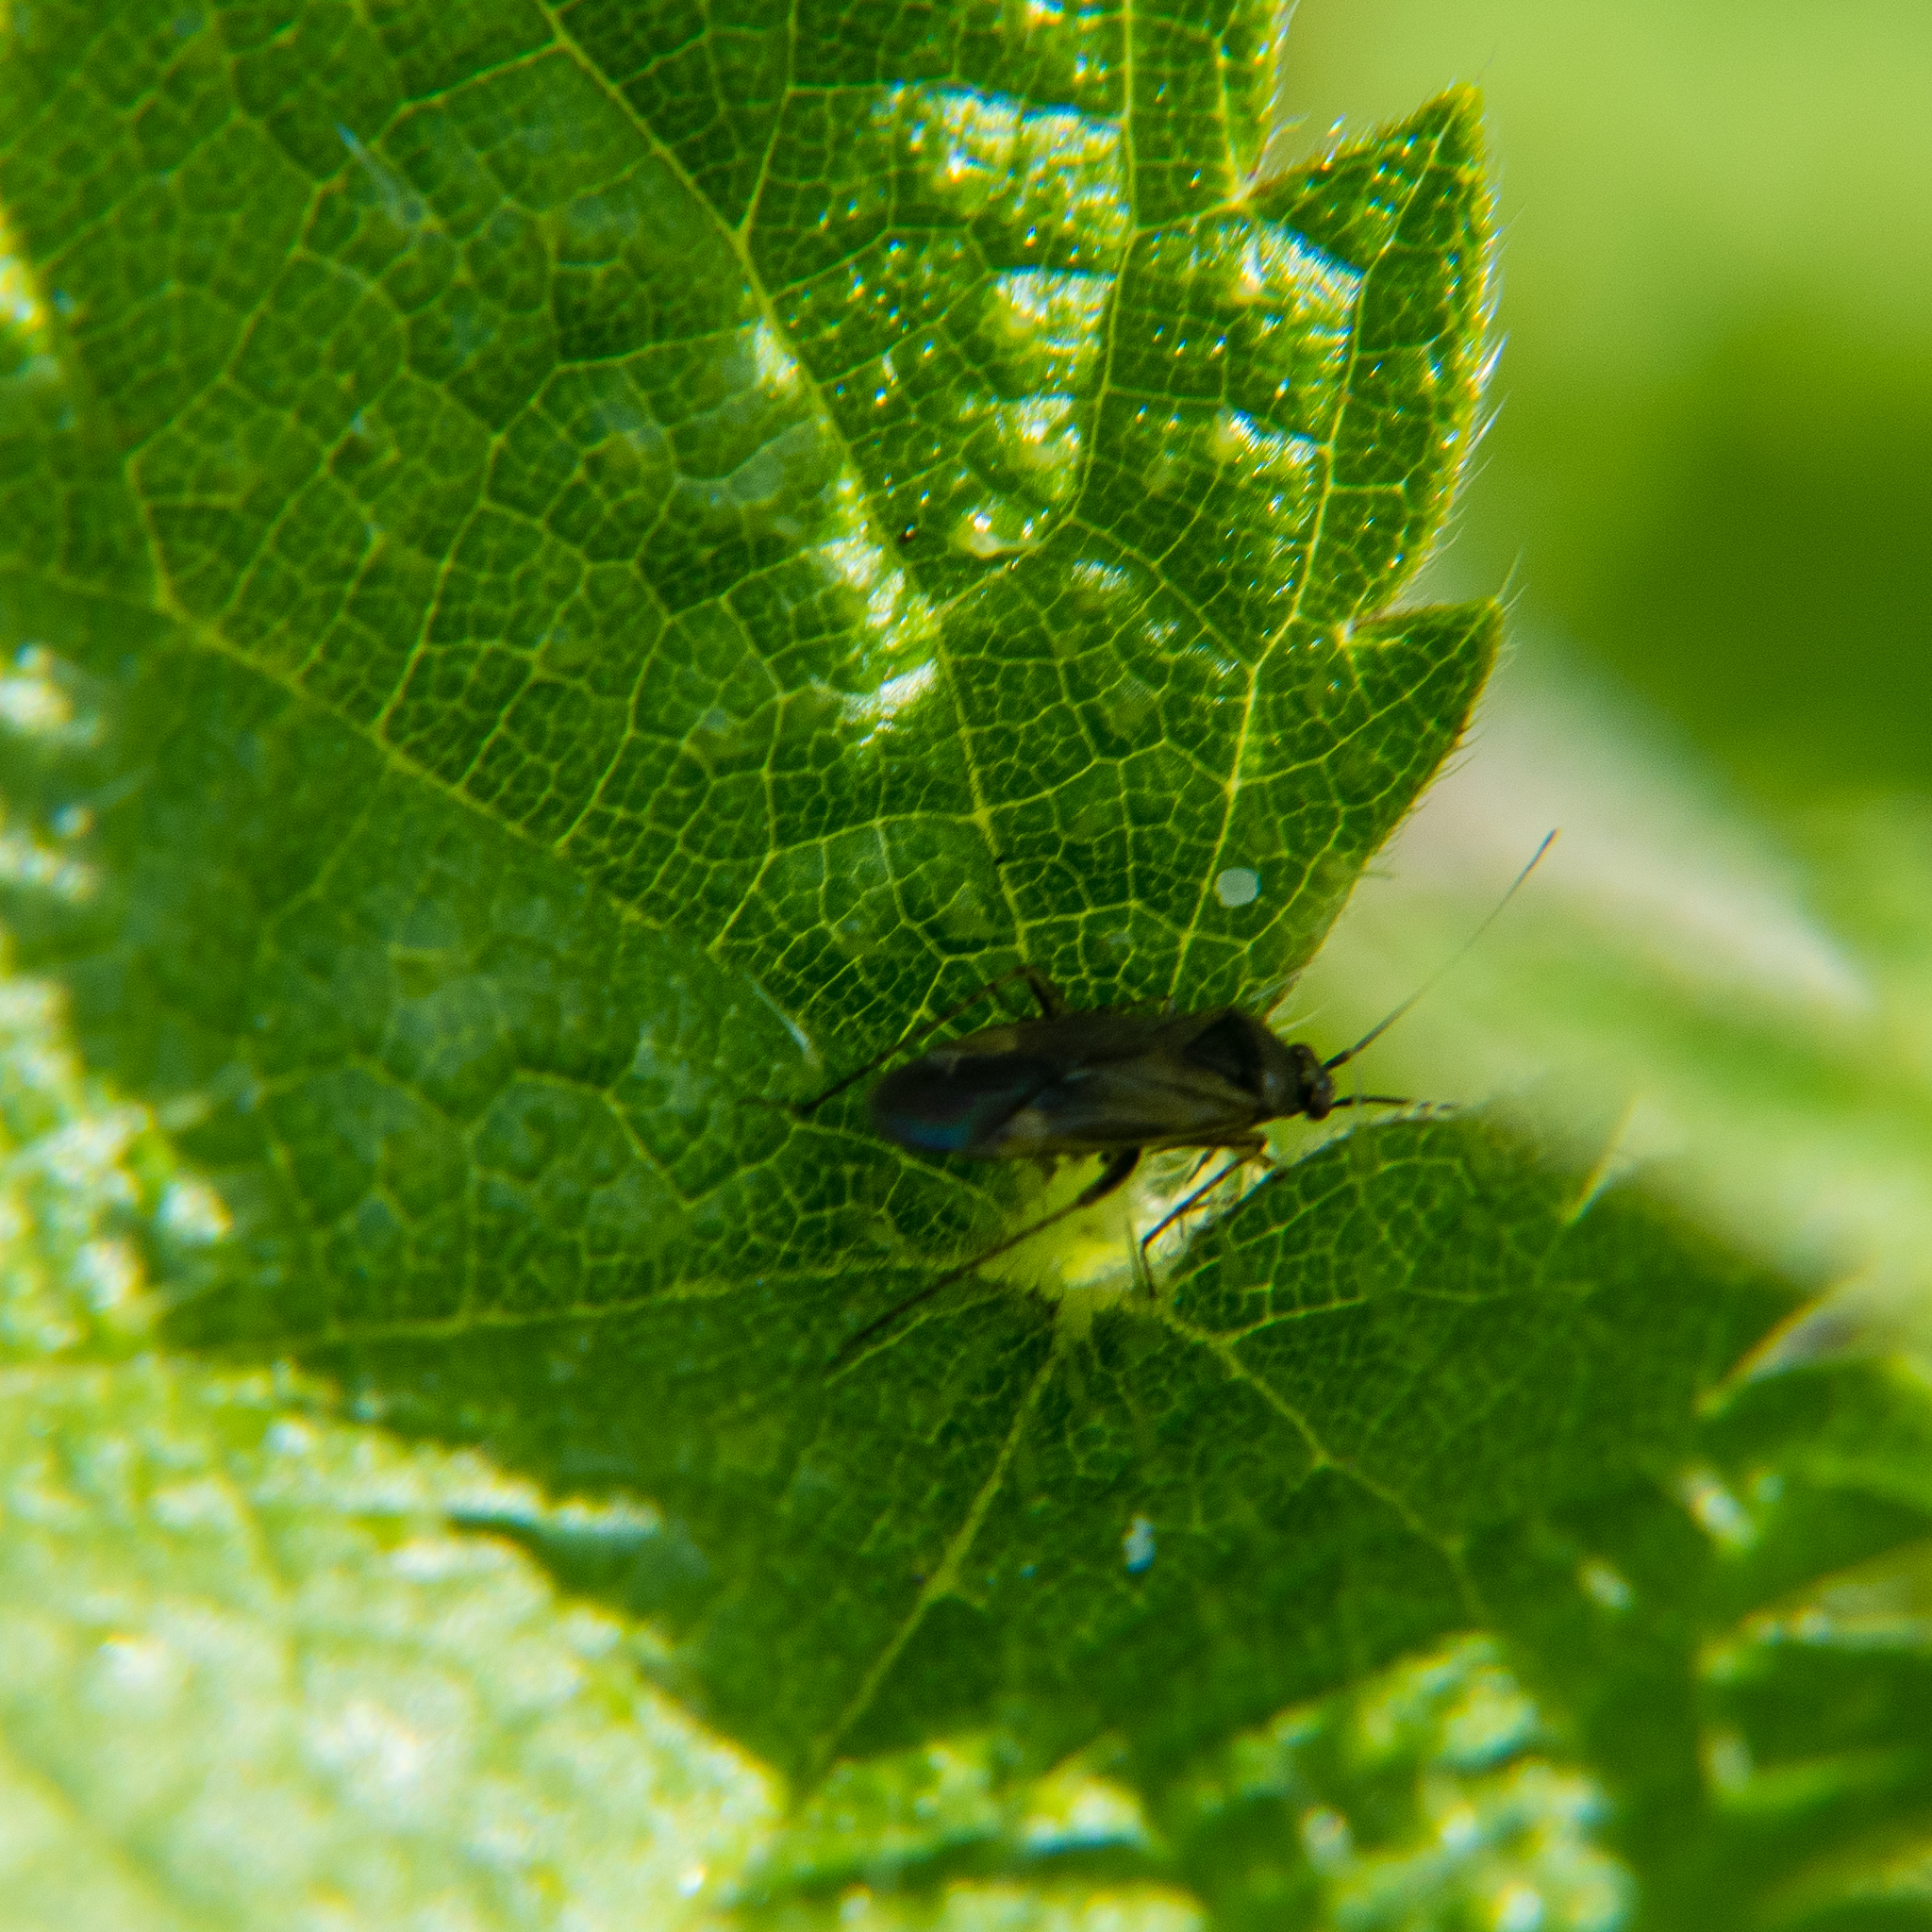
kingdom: Animalia
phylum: Arthropoda
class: Insecta
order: Hemiptera
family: Miridae
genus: Plagiognathus
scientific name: Plagiognathus arbustorum
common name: Plant bug
